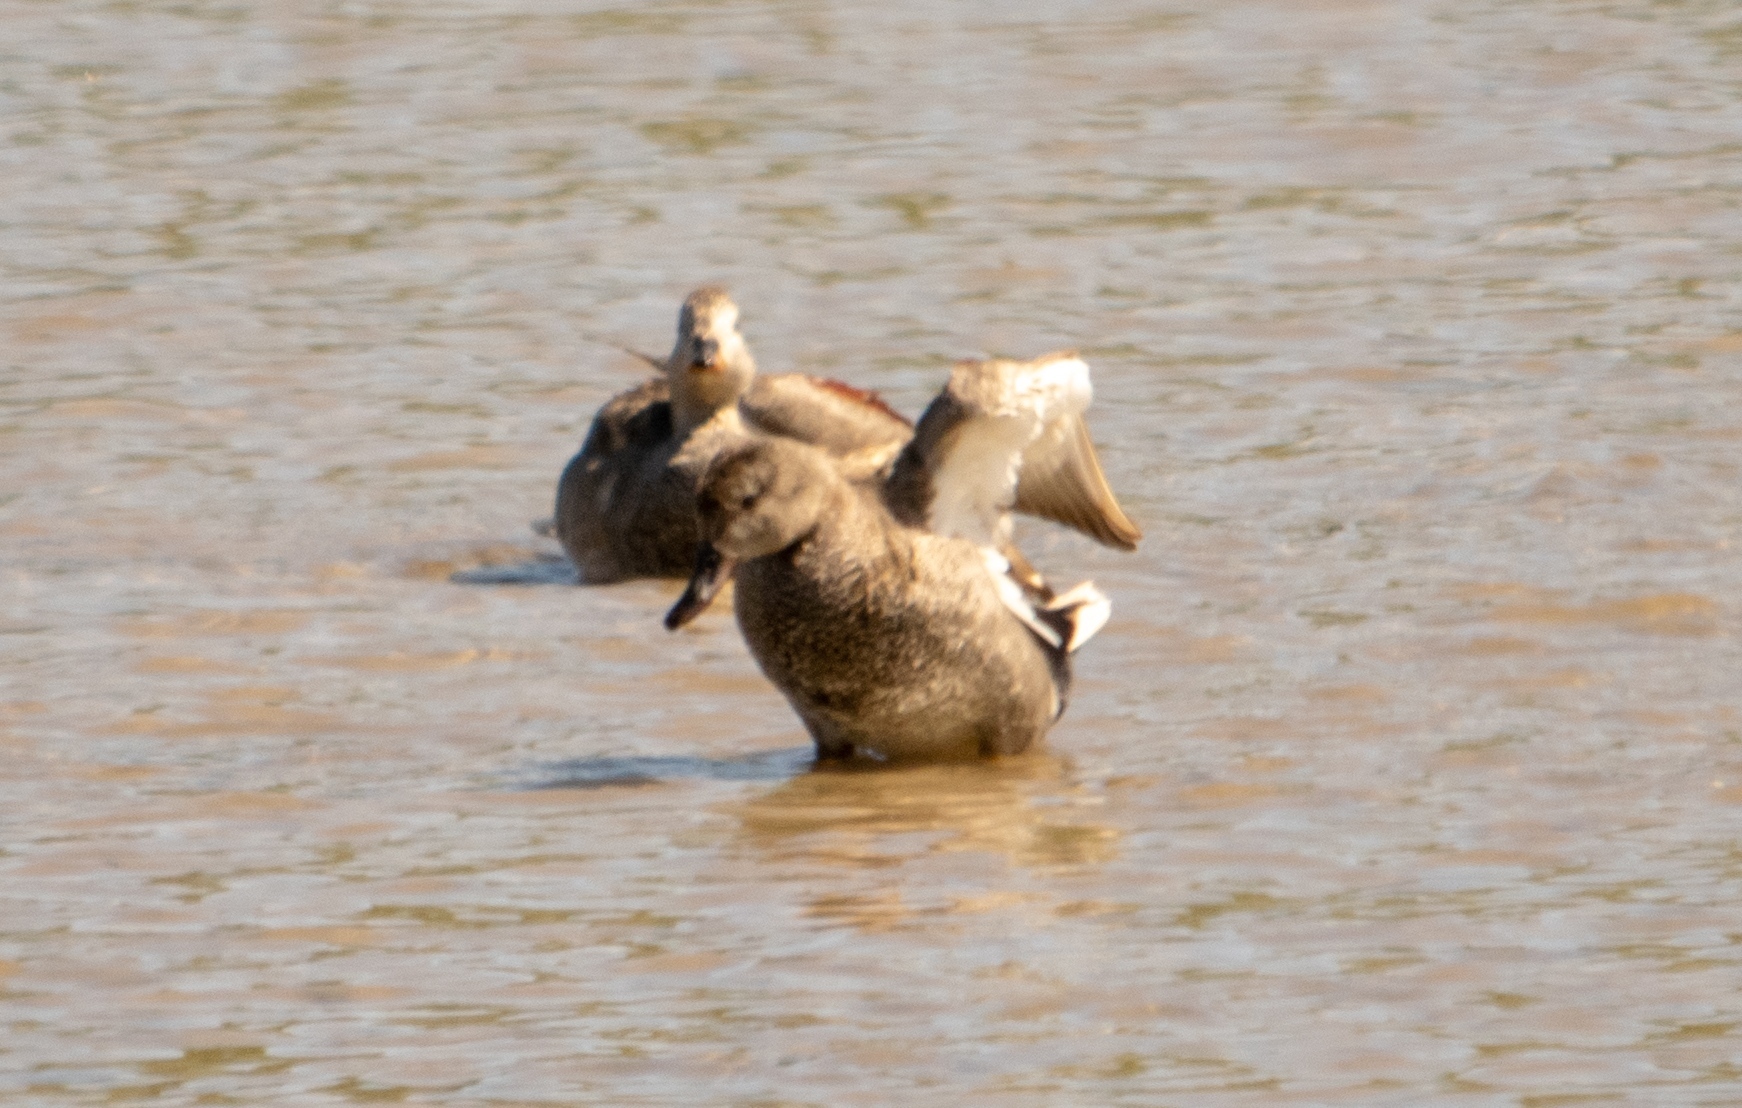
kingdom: Animalia
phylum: Chordata
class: Aves
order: Anseriformes
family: Anatidae
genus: Mareca
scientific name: Mareca strepera
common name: Gadwall
